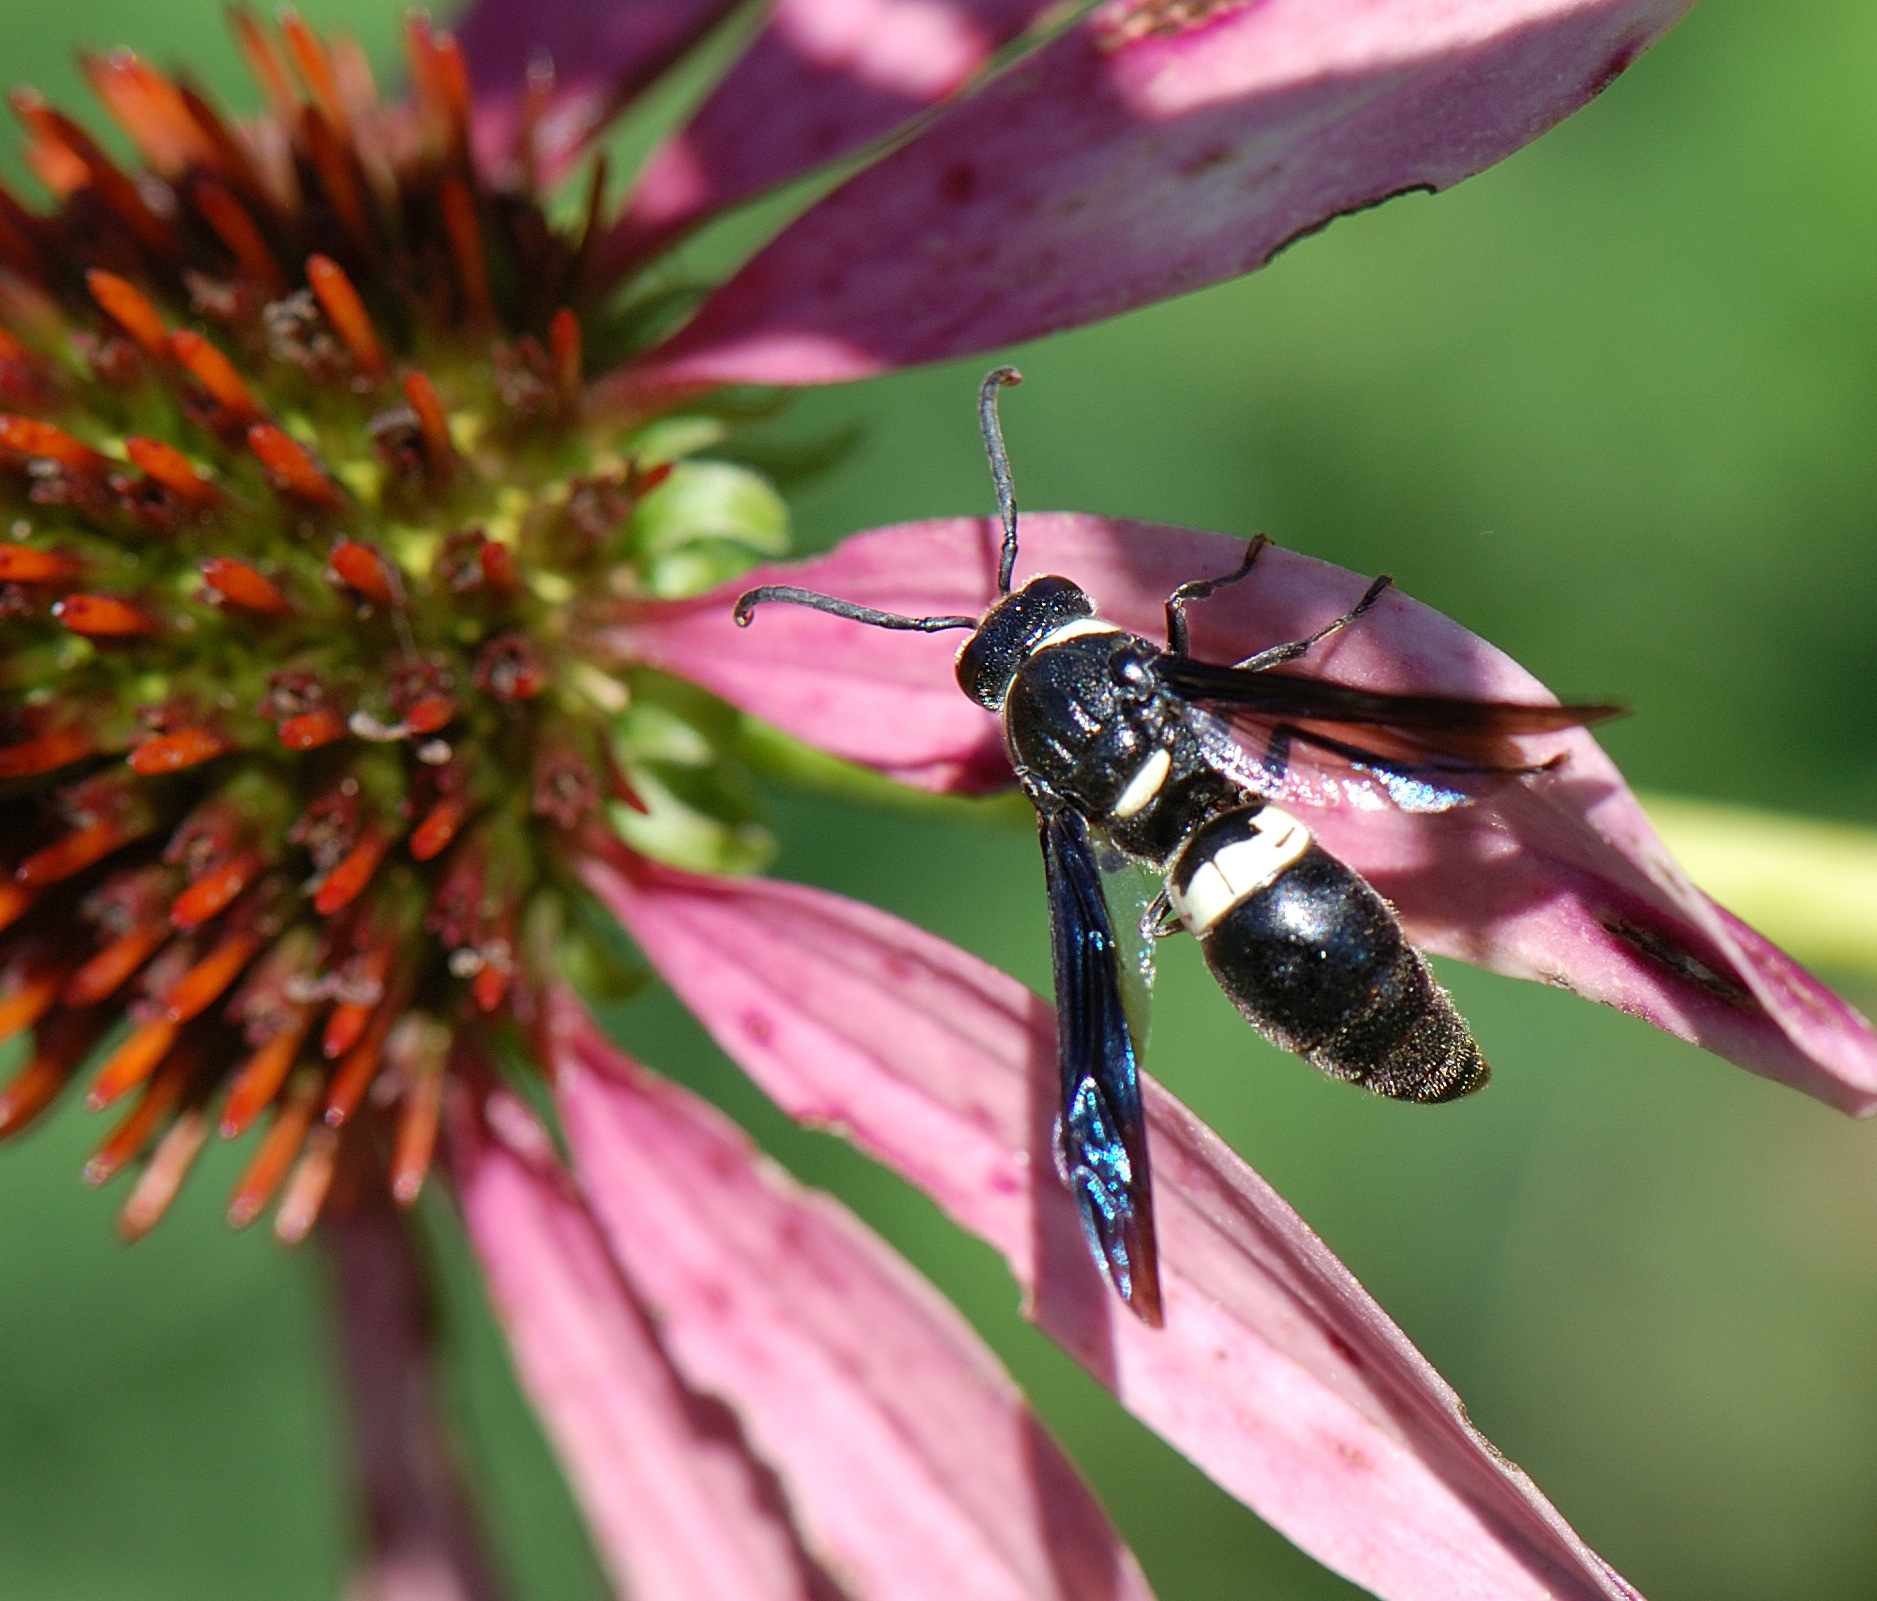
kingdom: Animalia
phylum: Arthropoda
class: Insecta
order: Hymenoptera
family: Eumenidae
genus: Monobia
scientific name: Monobia quadridens
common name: Four-toothed mason wasp
